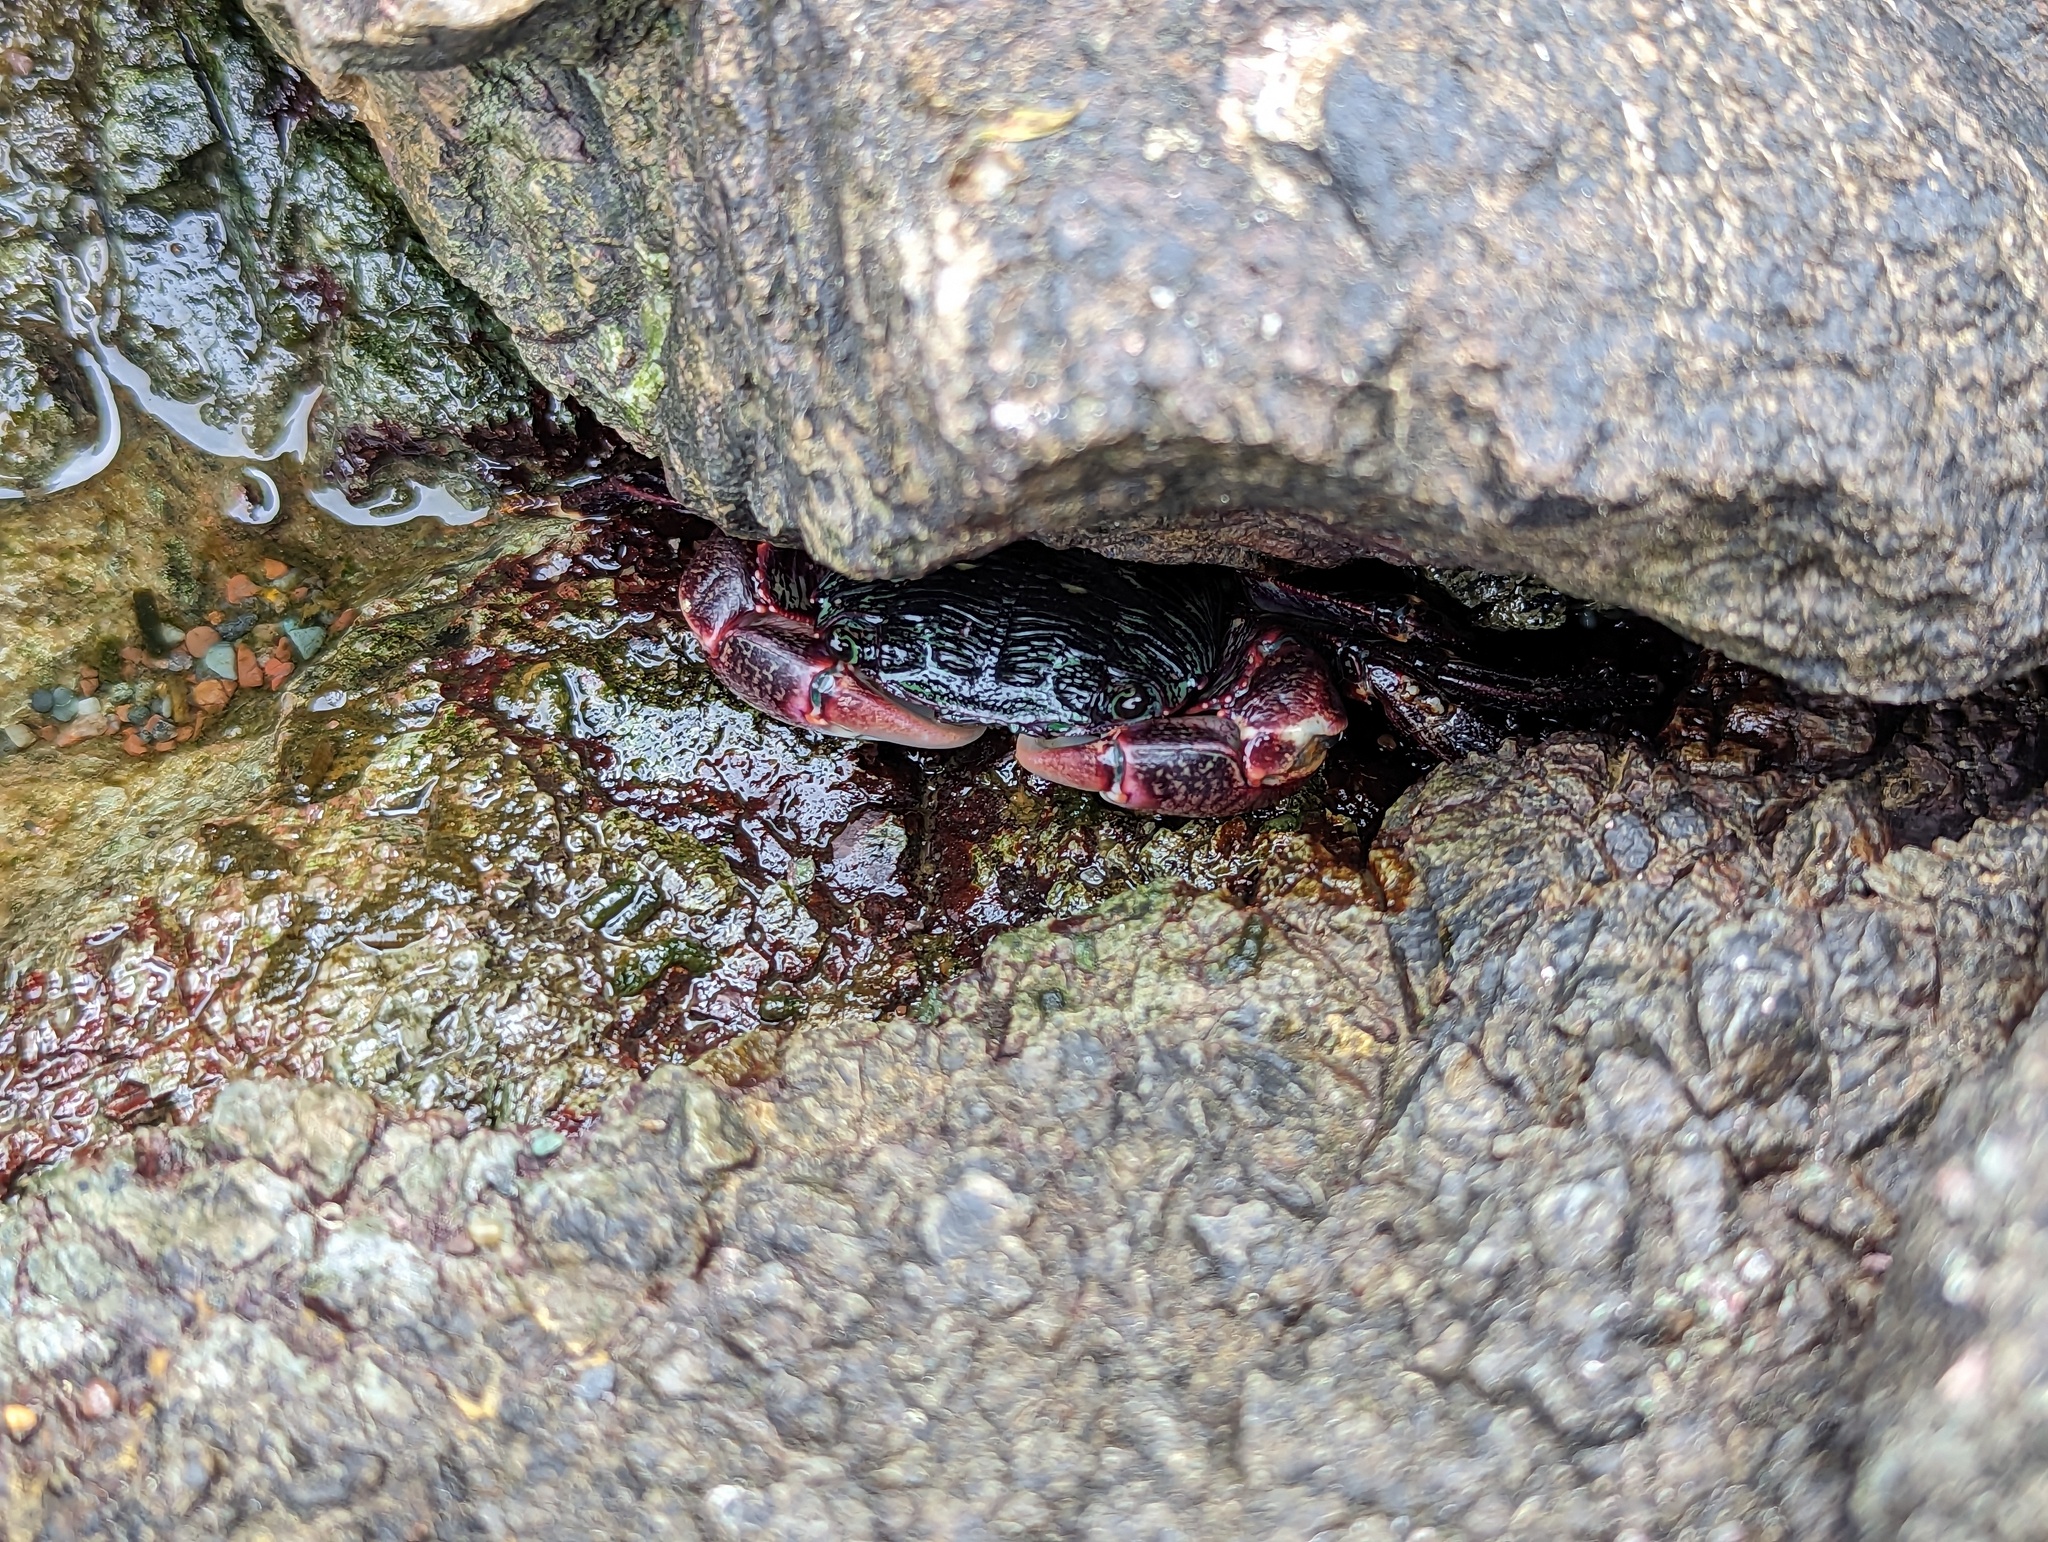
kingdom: Animalia
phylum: Arthropoda
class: Malacostraca
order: Decapoda
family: Grapsidae
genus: Pachygrapsus
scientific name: Pachygrapsus crassipes
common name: Striped shore crab
